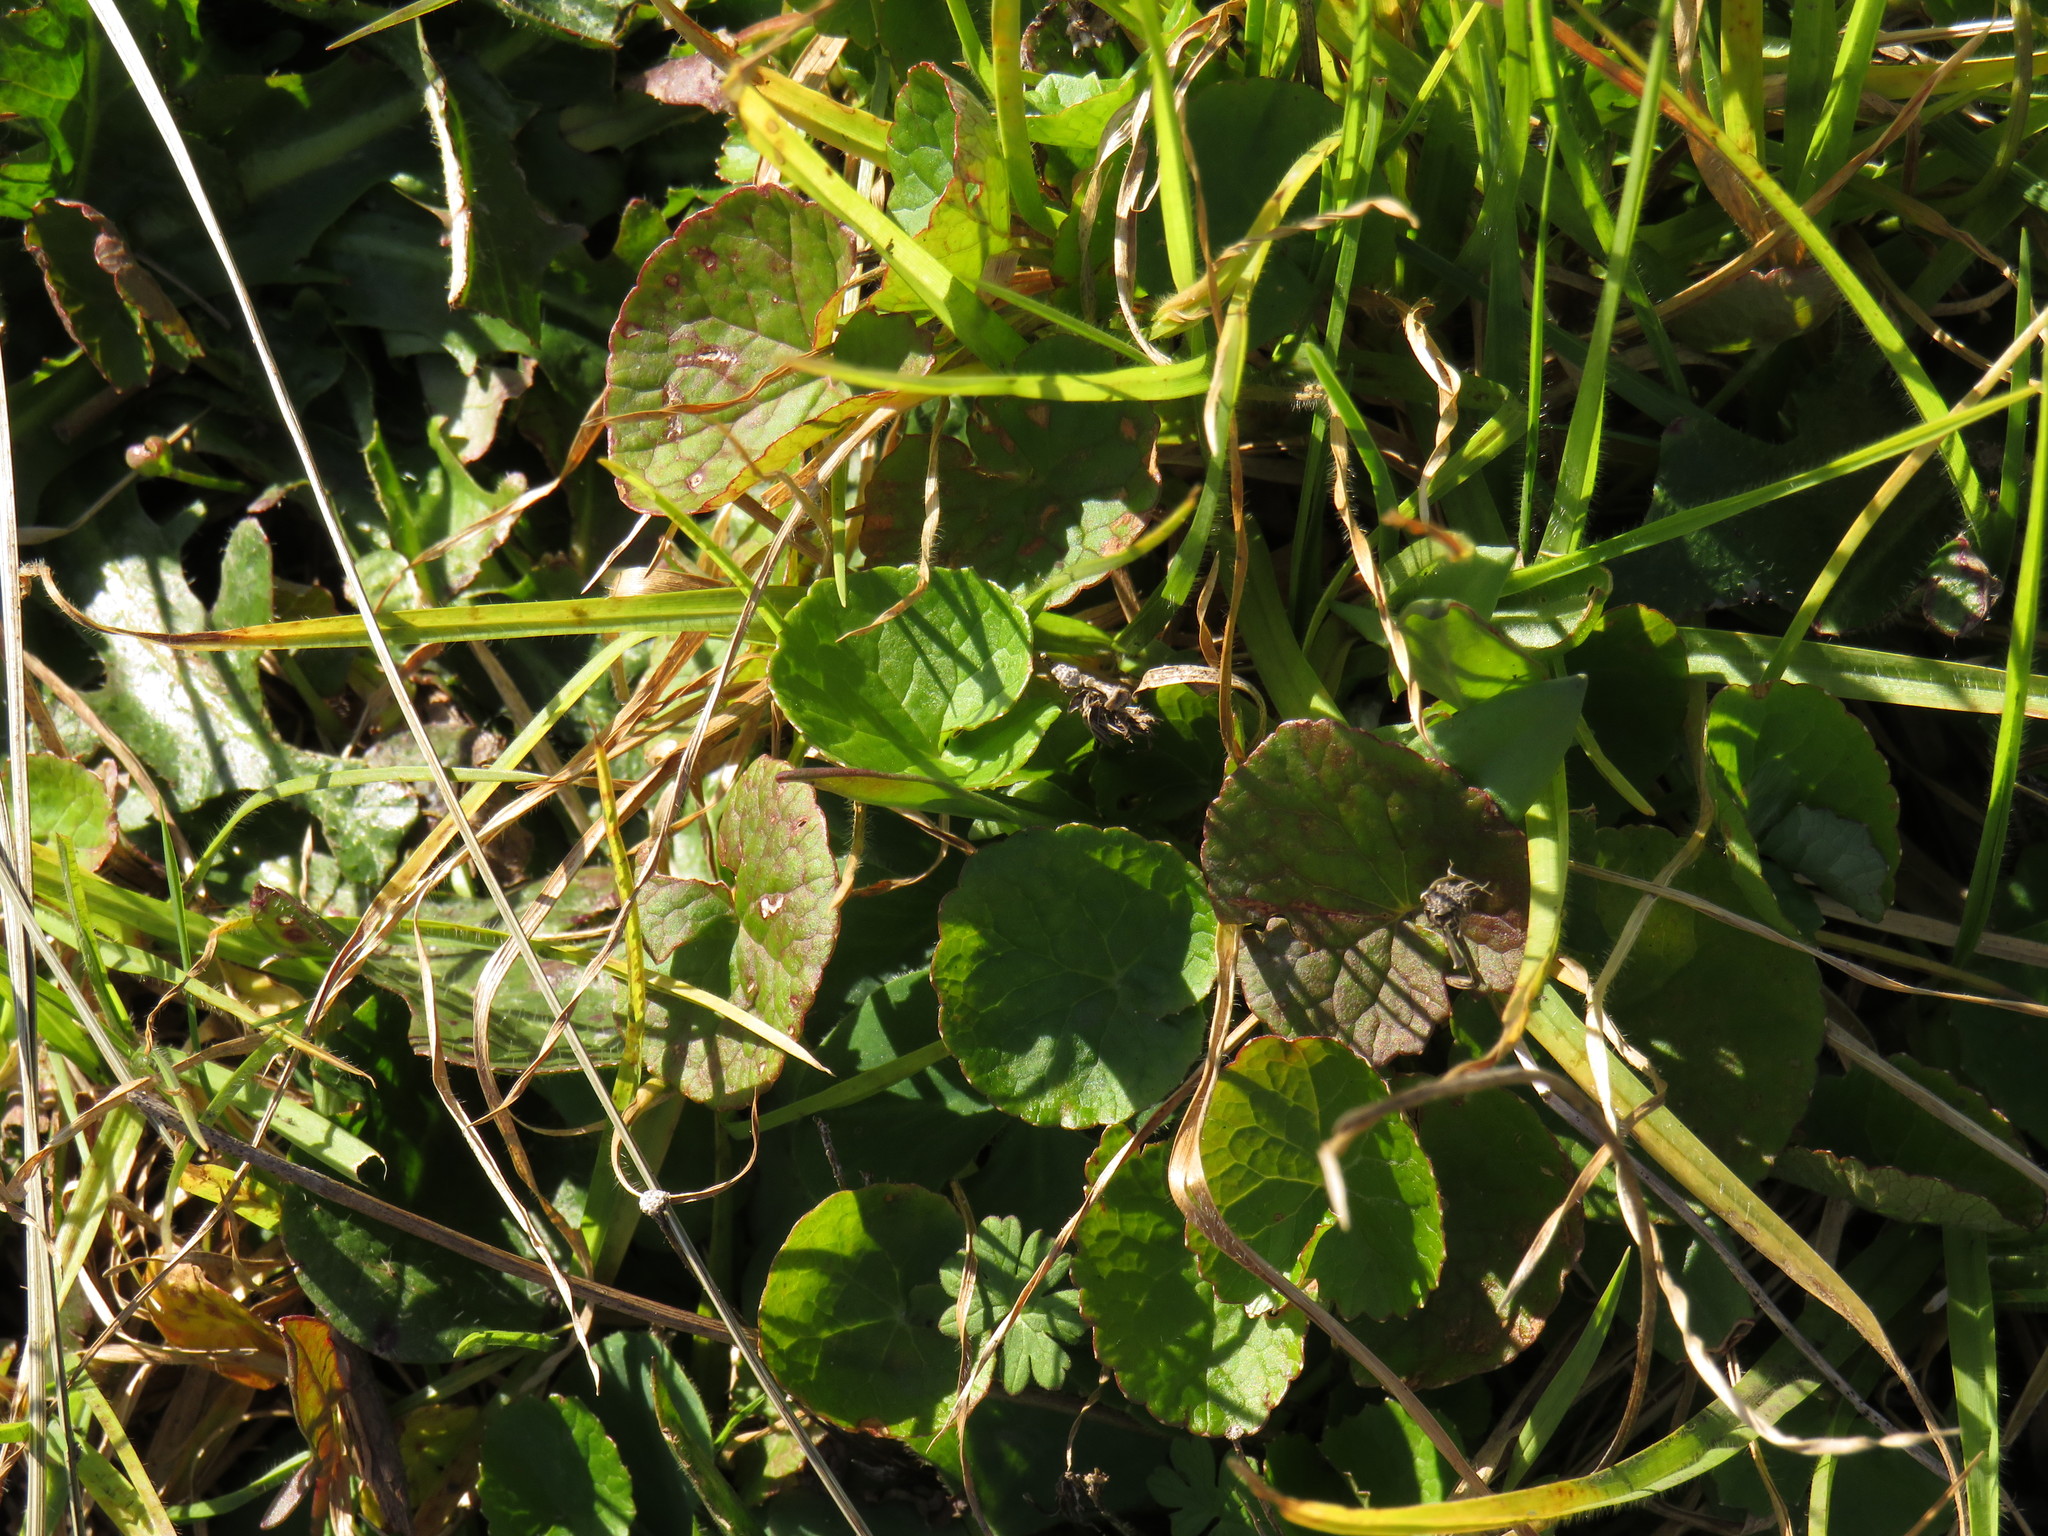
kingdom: Plantae
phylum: Tracheophyta
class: Magnoliopsida
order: Apiales
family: Apiaceae
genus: Centella
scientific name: Centella asiatica
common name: Spadeleaf
